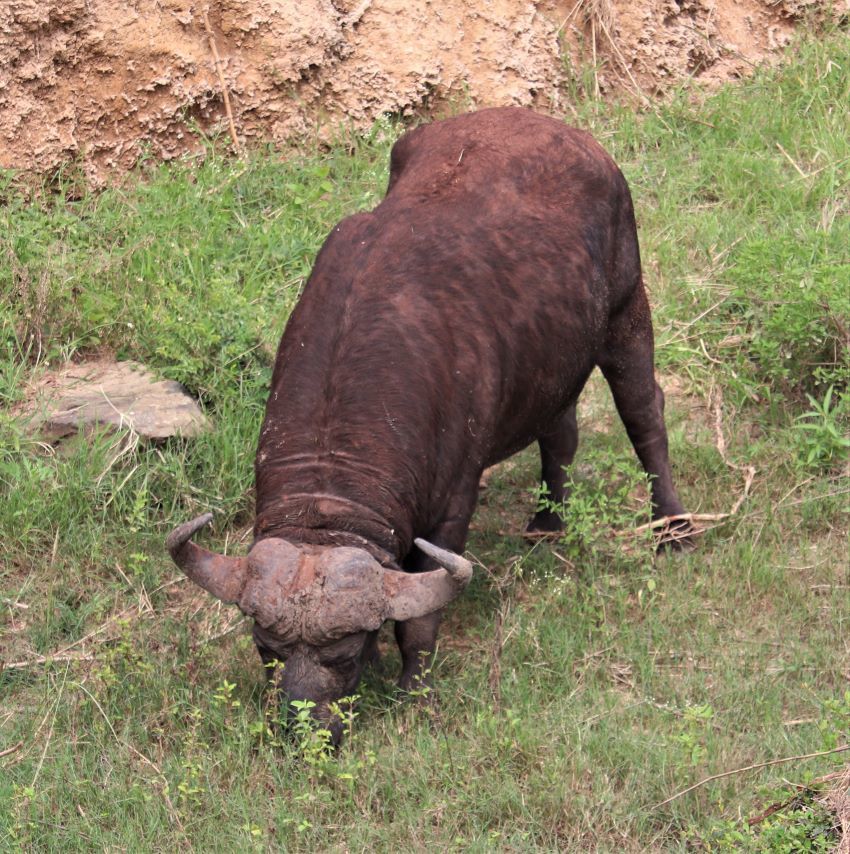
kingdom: Animalia
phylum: Chordata
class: Mammalia
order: Artiodactyla
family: Bovidae
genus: Syncerus
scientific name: Syncerus caffer
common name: African buffalo
